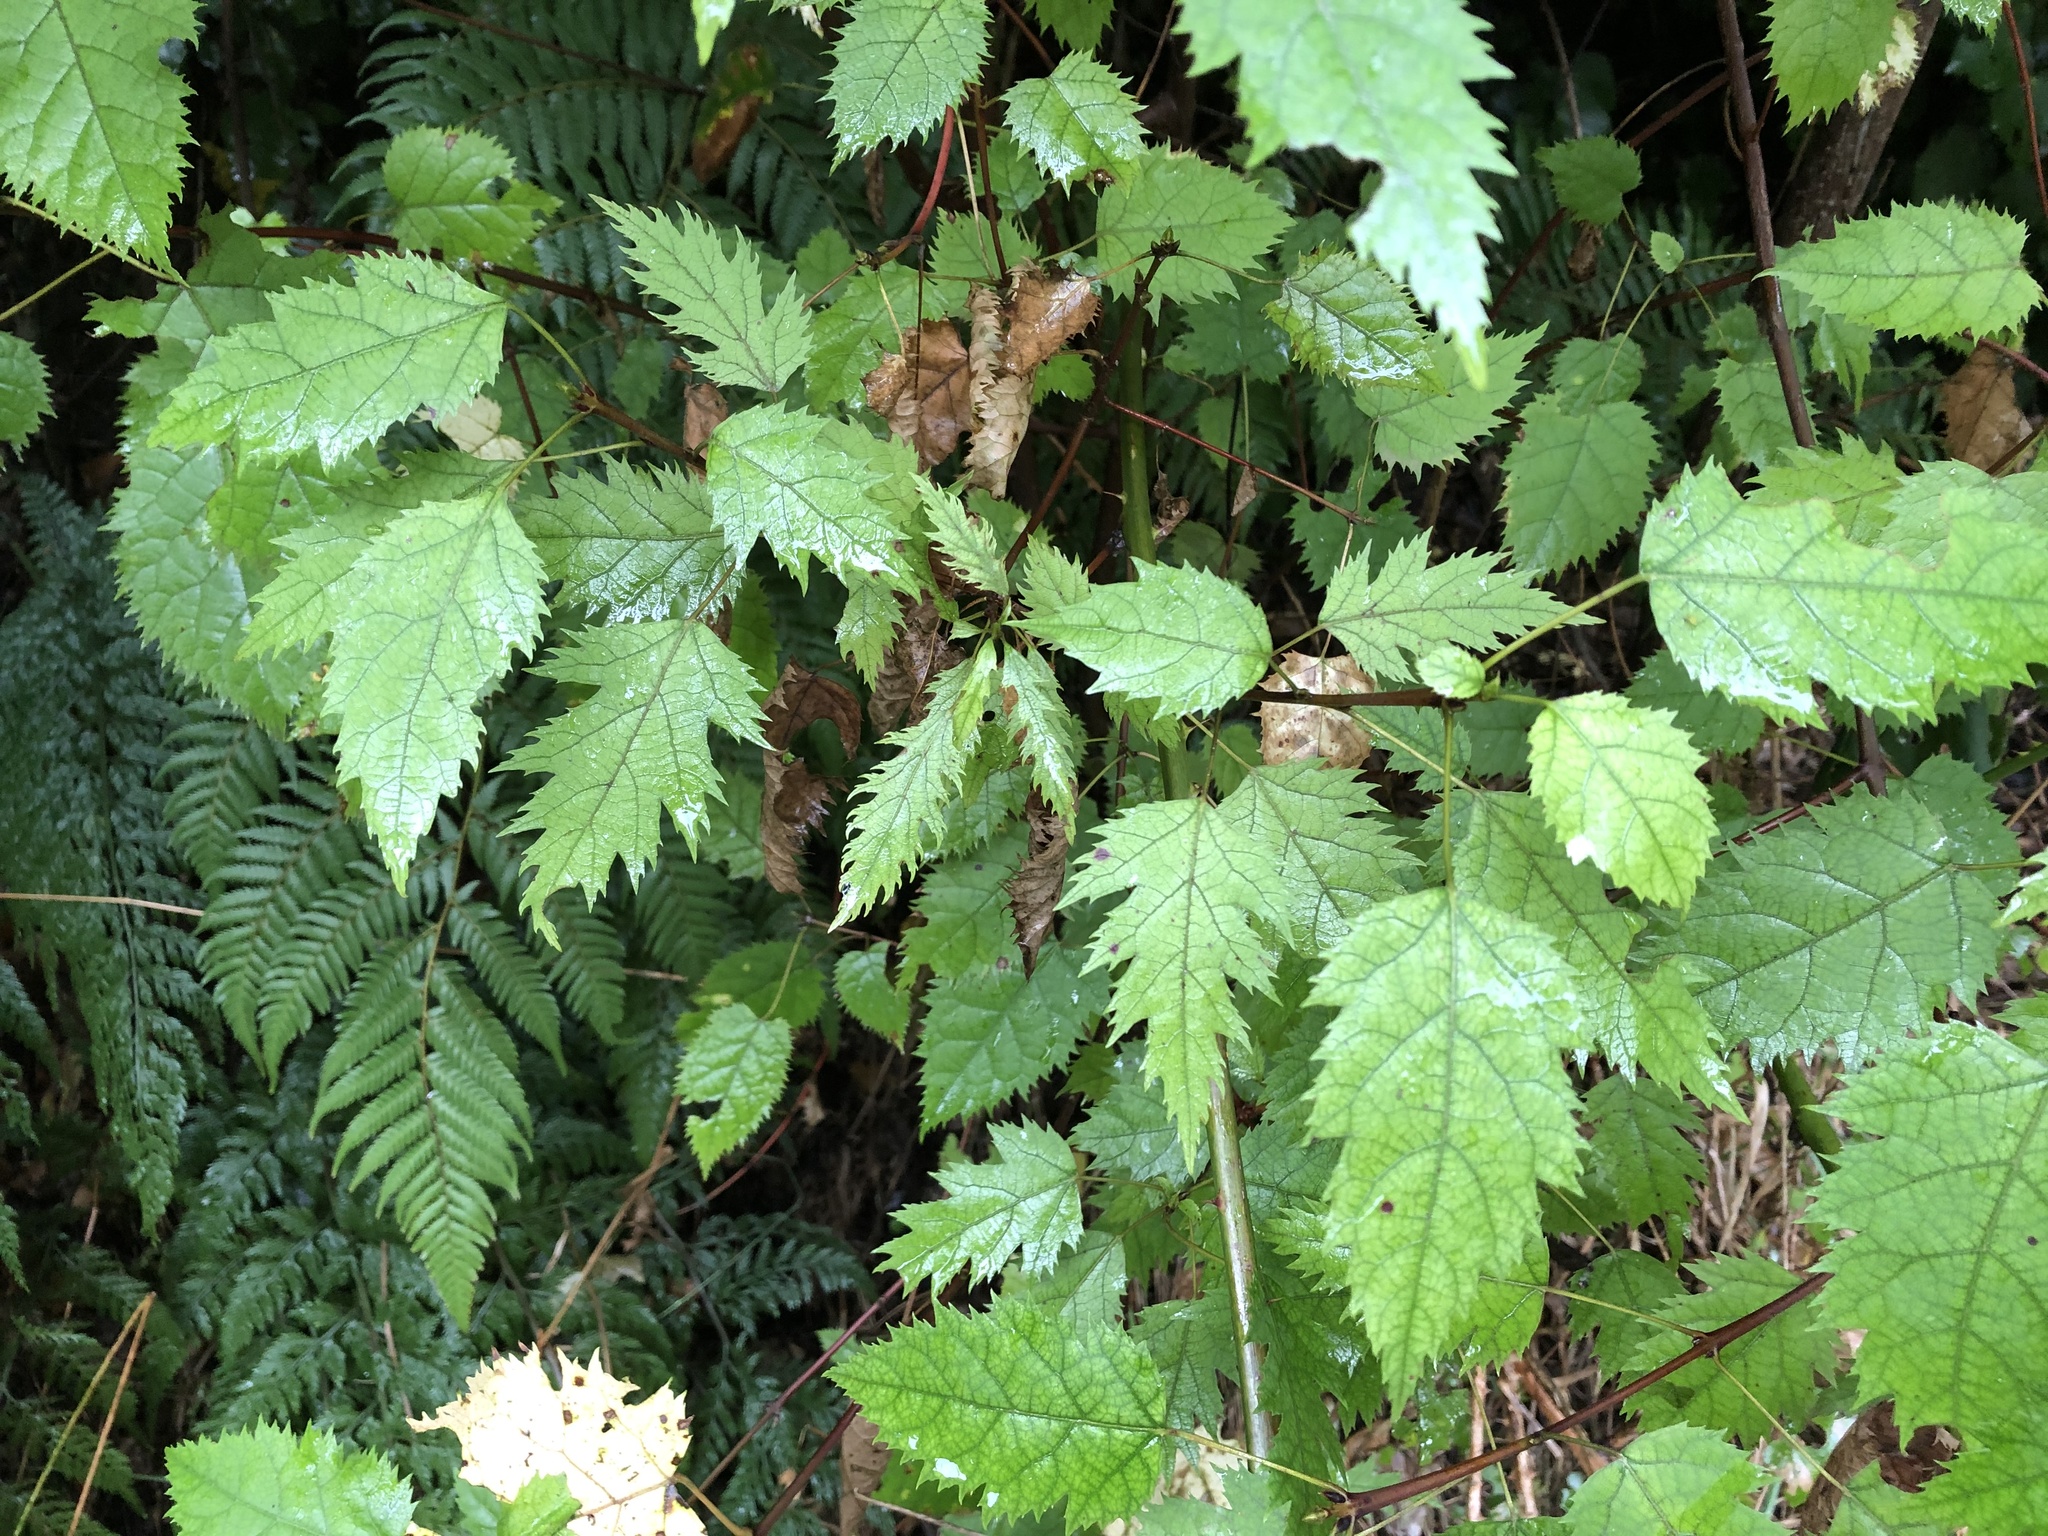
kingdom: Plantae
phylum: Tracheophyta
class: Magnoliopsida
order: Oxalidales
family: Elaeocarpaceae
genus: Aristotelia
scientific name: Aristotelia serrata
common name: New zealand wineberry
